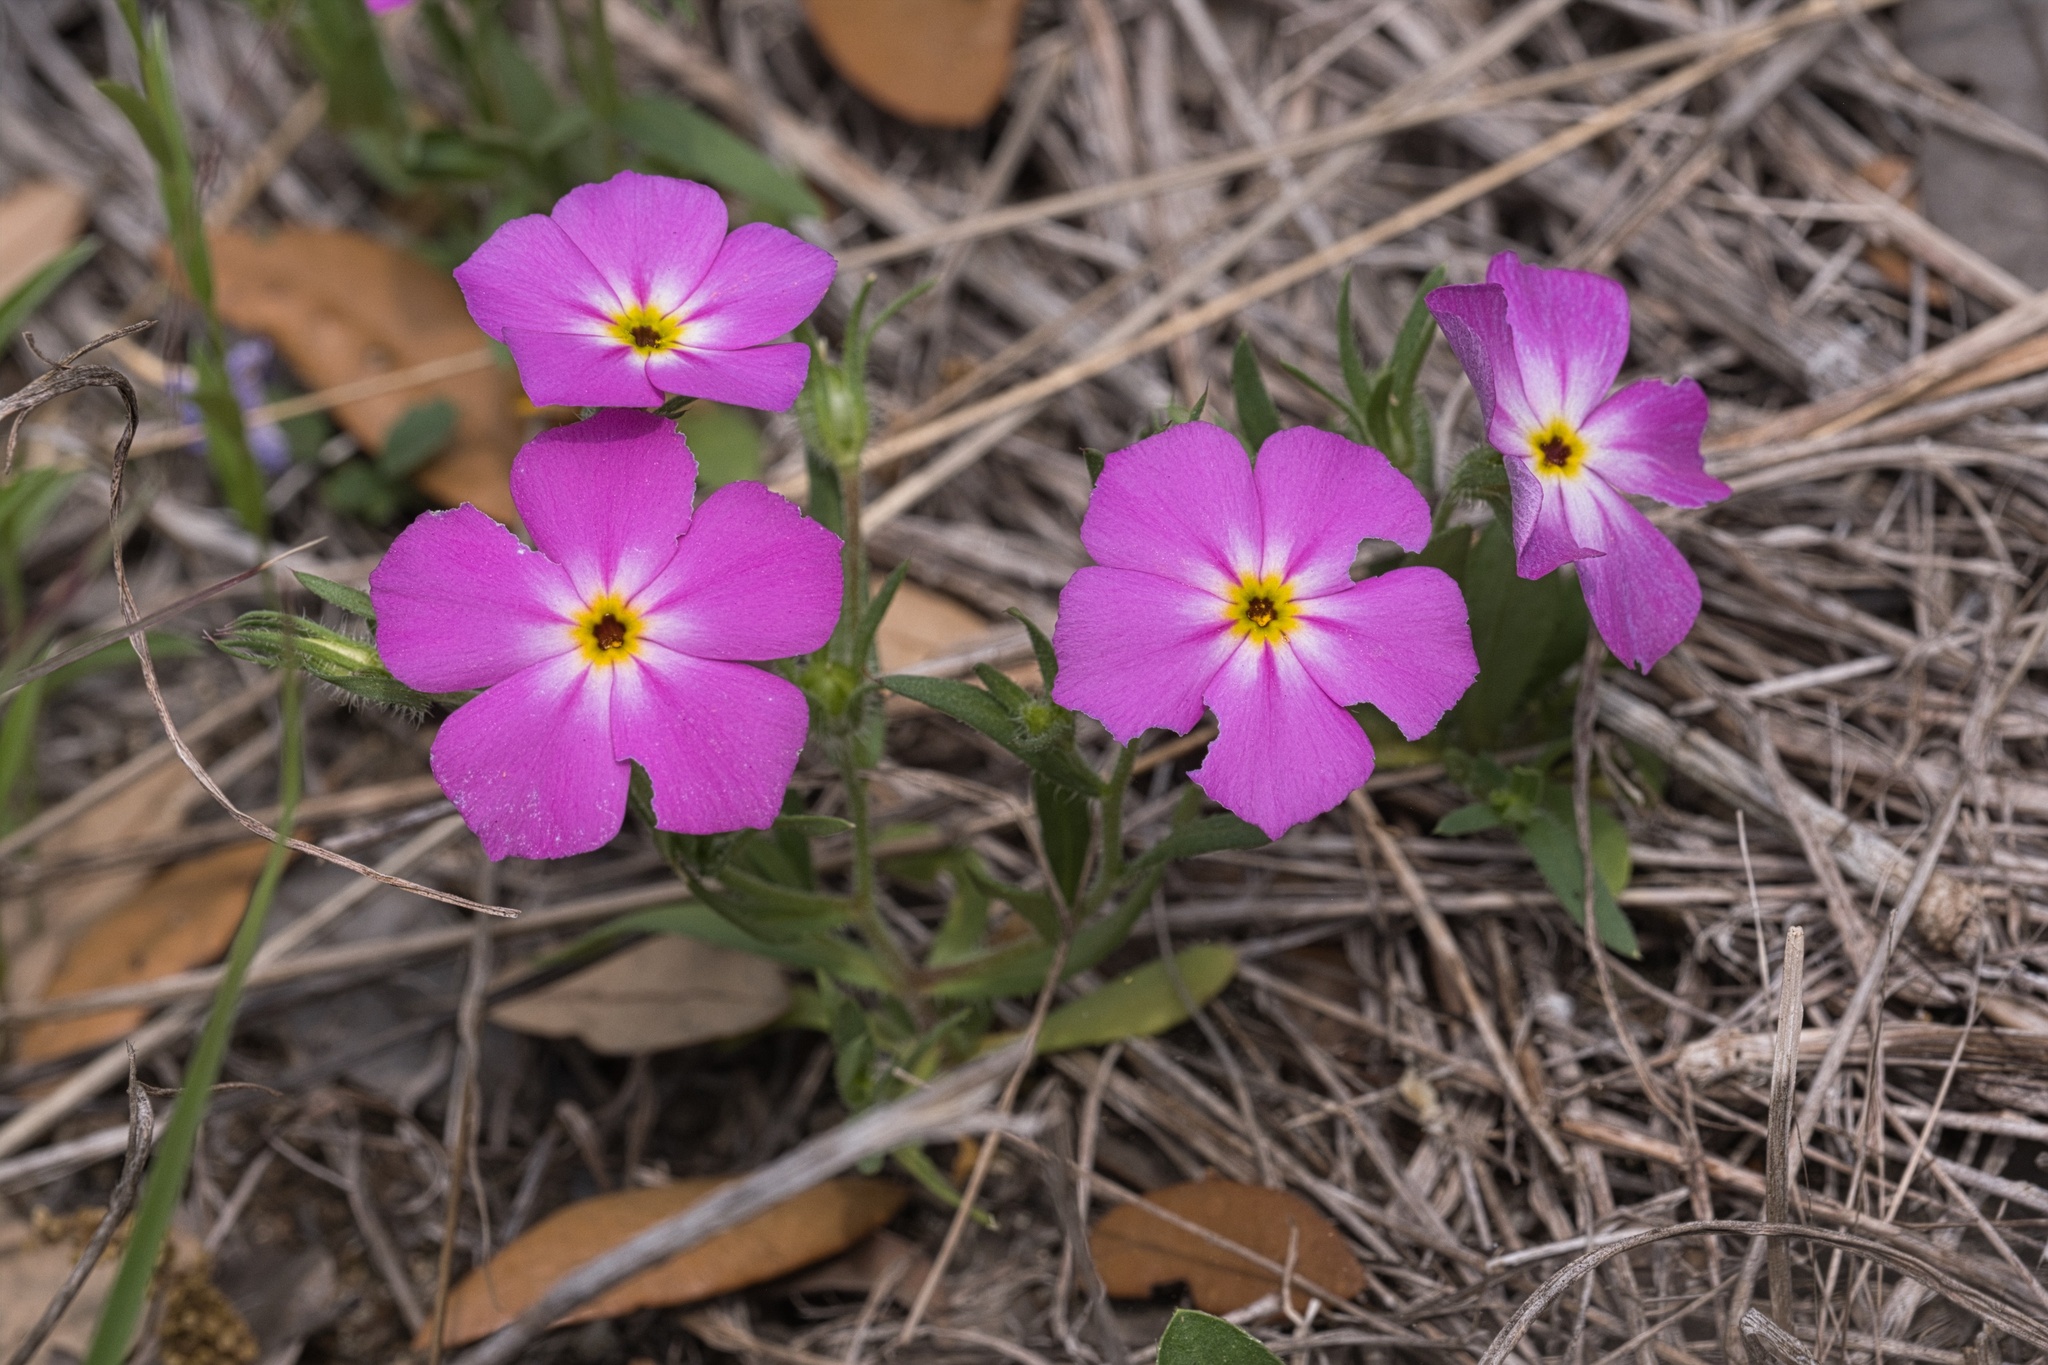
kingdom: Plantae
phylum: Tracheophyta
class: Magnoliopsida
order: Ericales
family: Polemoniaceae
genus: Phlox
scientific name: Phlox roemeriana
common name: Roemer's phlox
